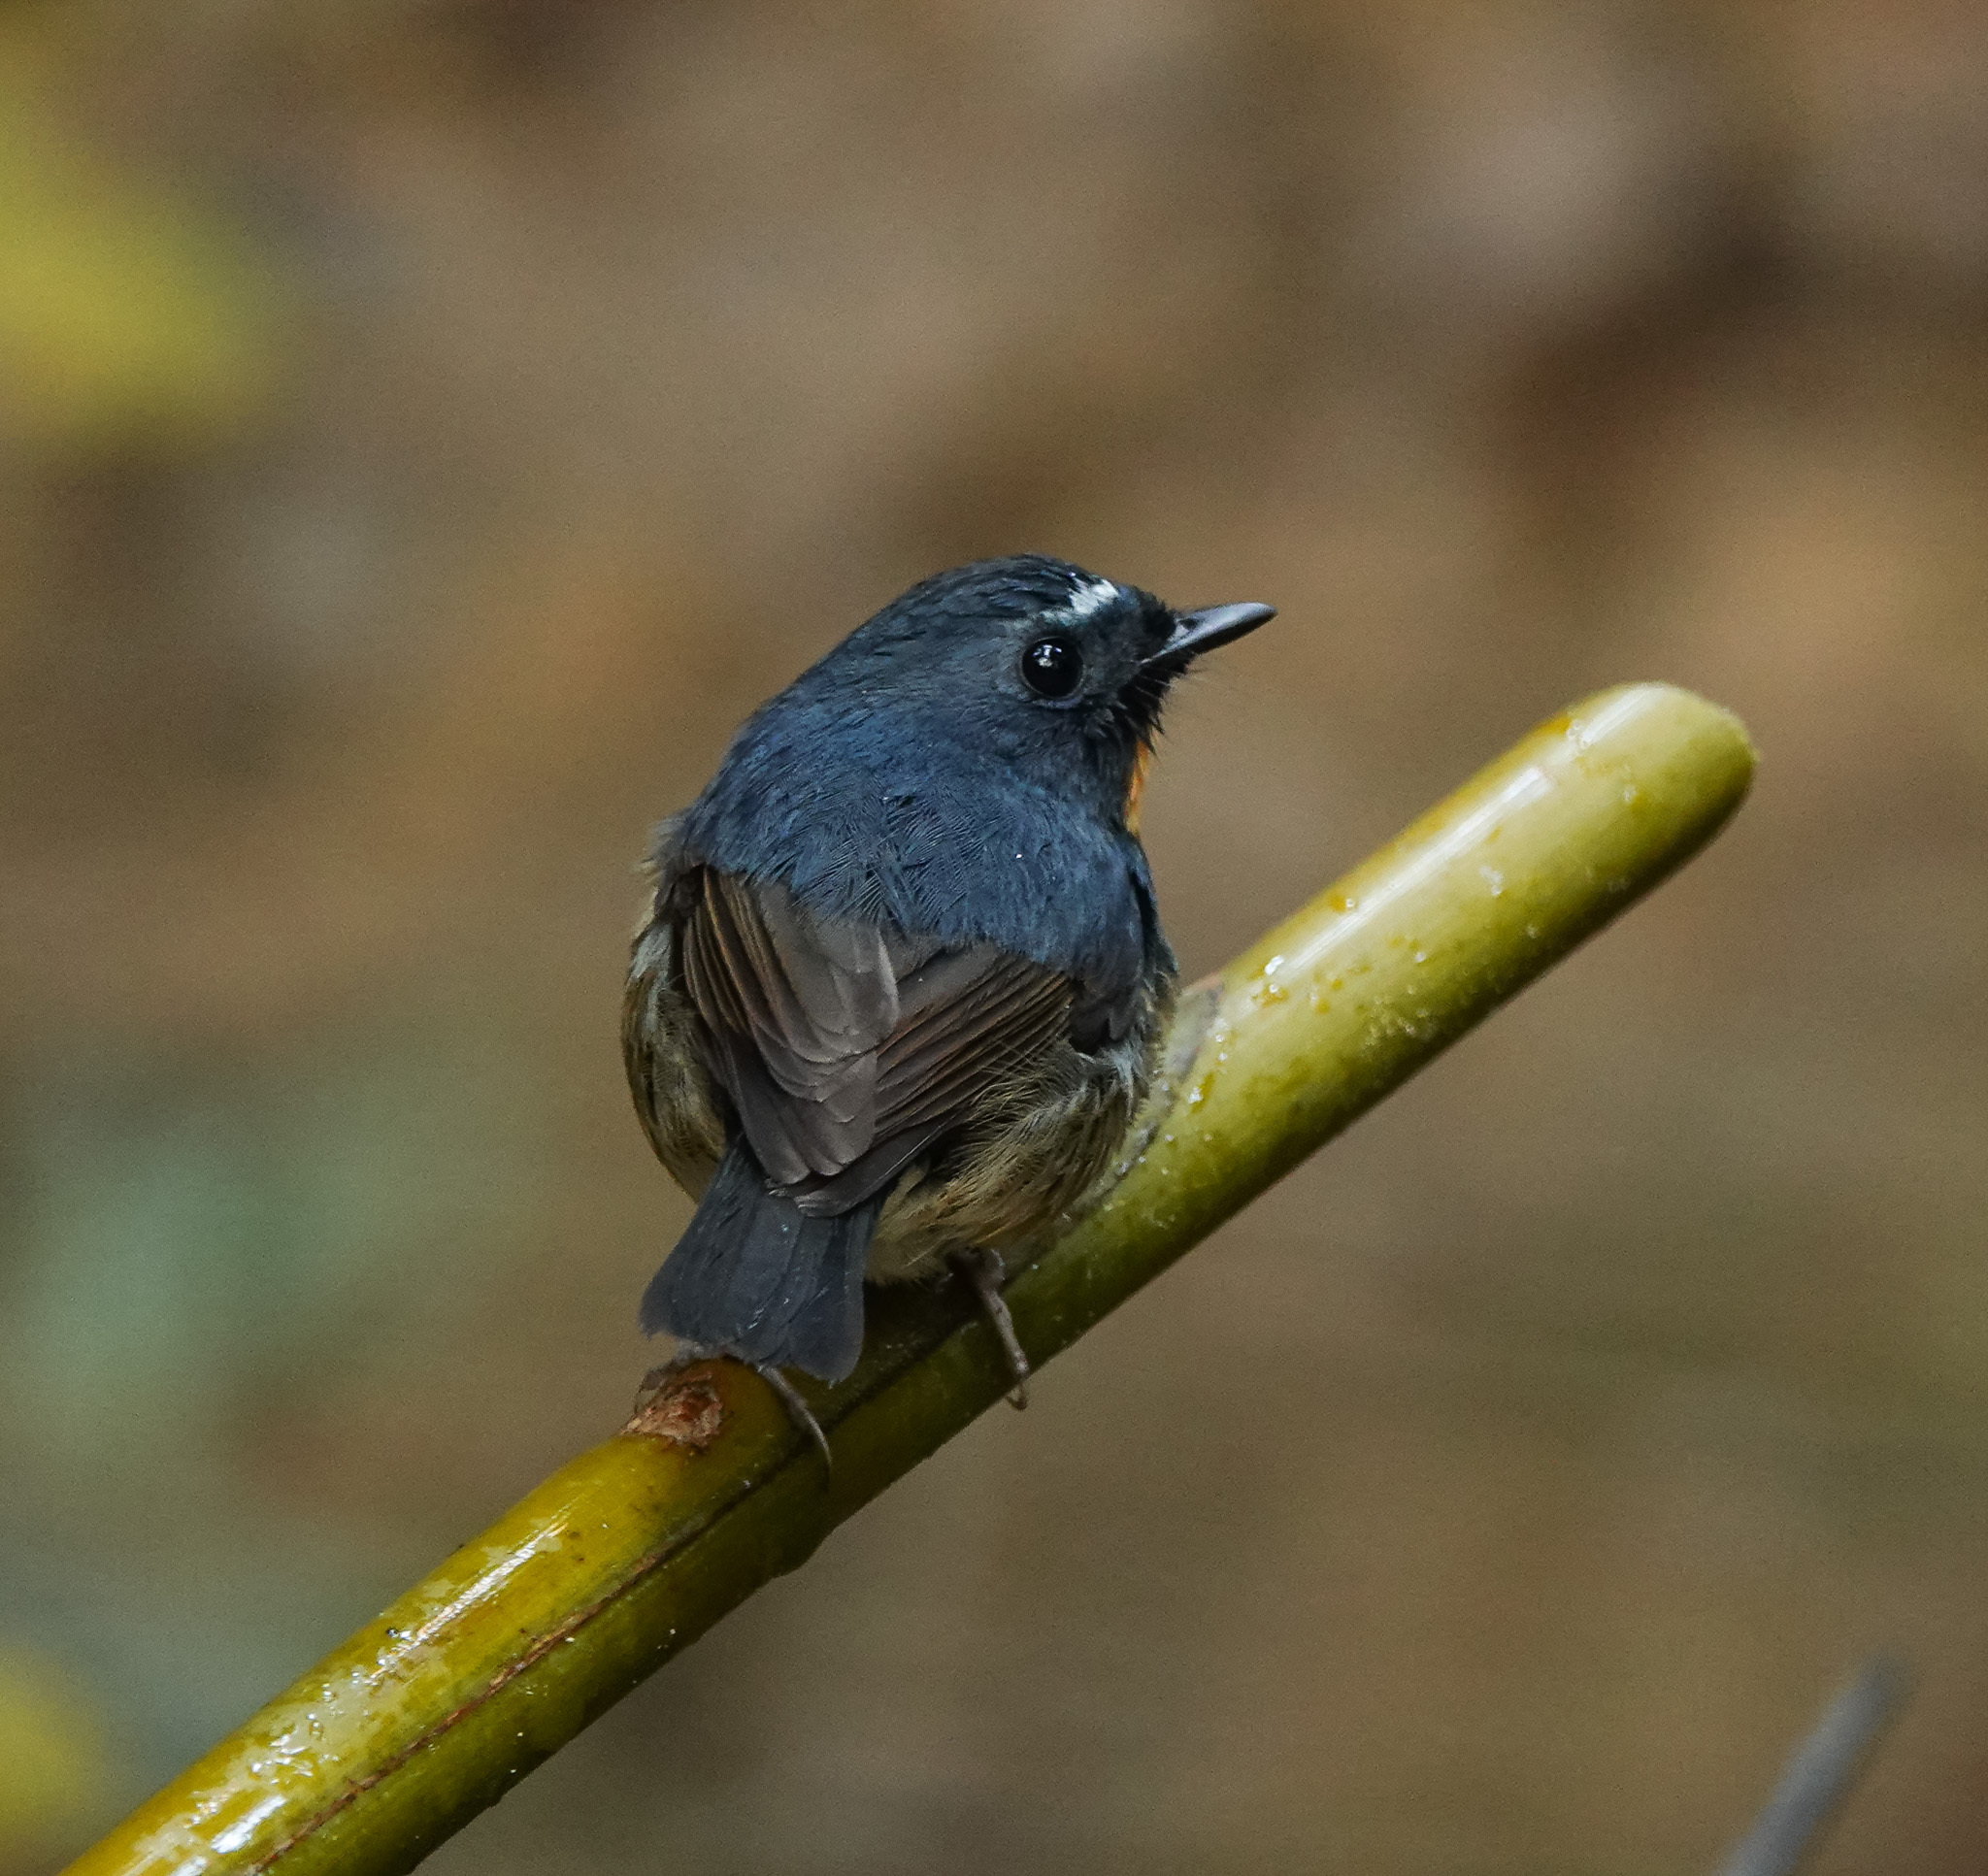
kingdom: Animalia
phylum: Chordata
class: Aves
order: Passeriformes
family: Muscicapidae
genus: Ficedula
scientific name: Ficedula hyperythra
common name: Snowy-browed flycatcher
